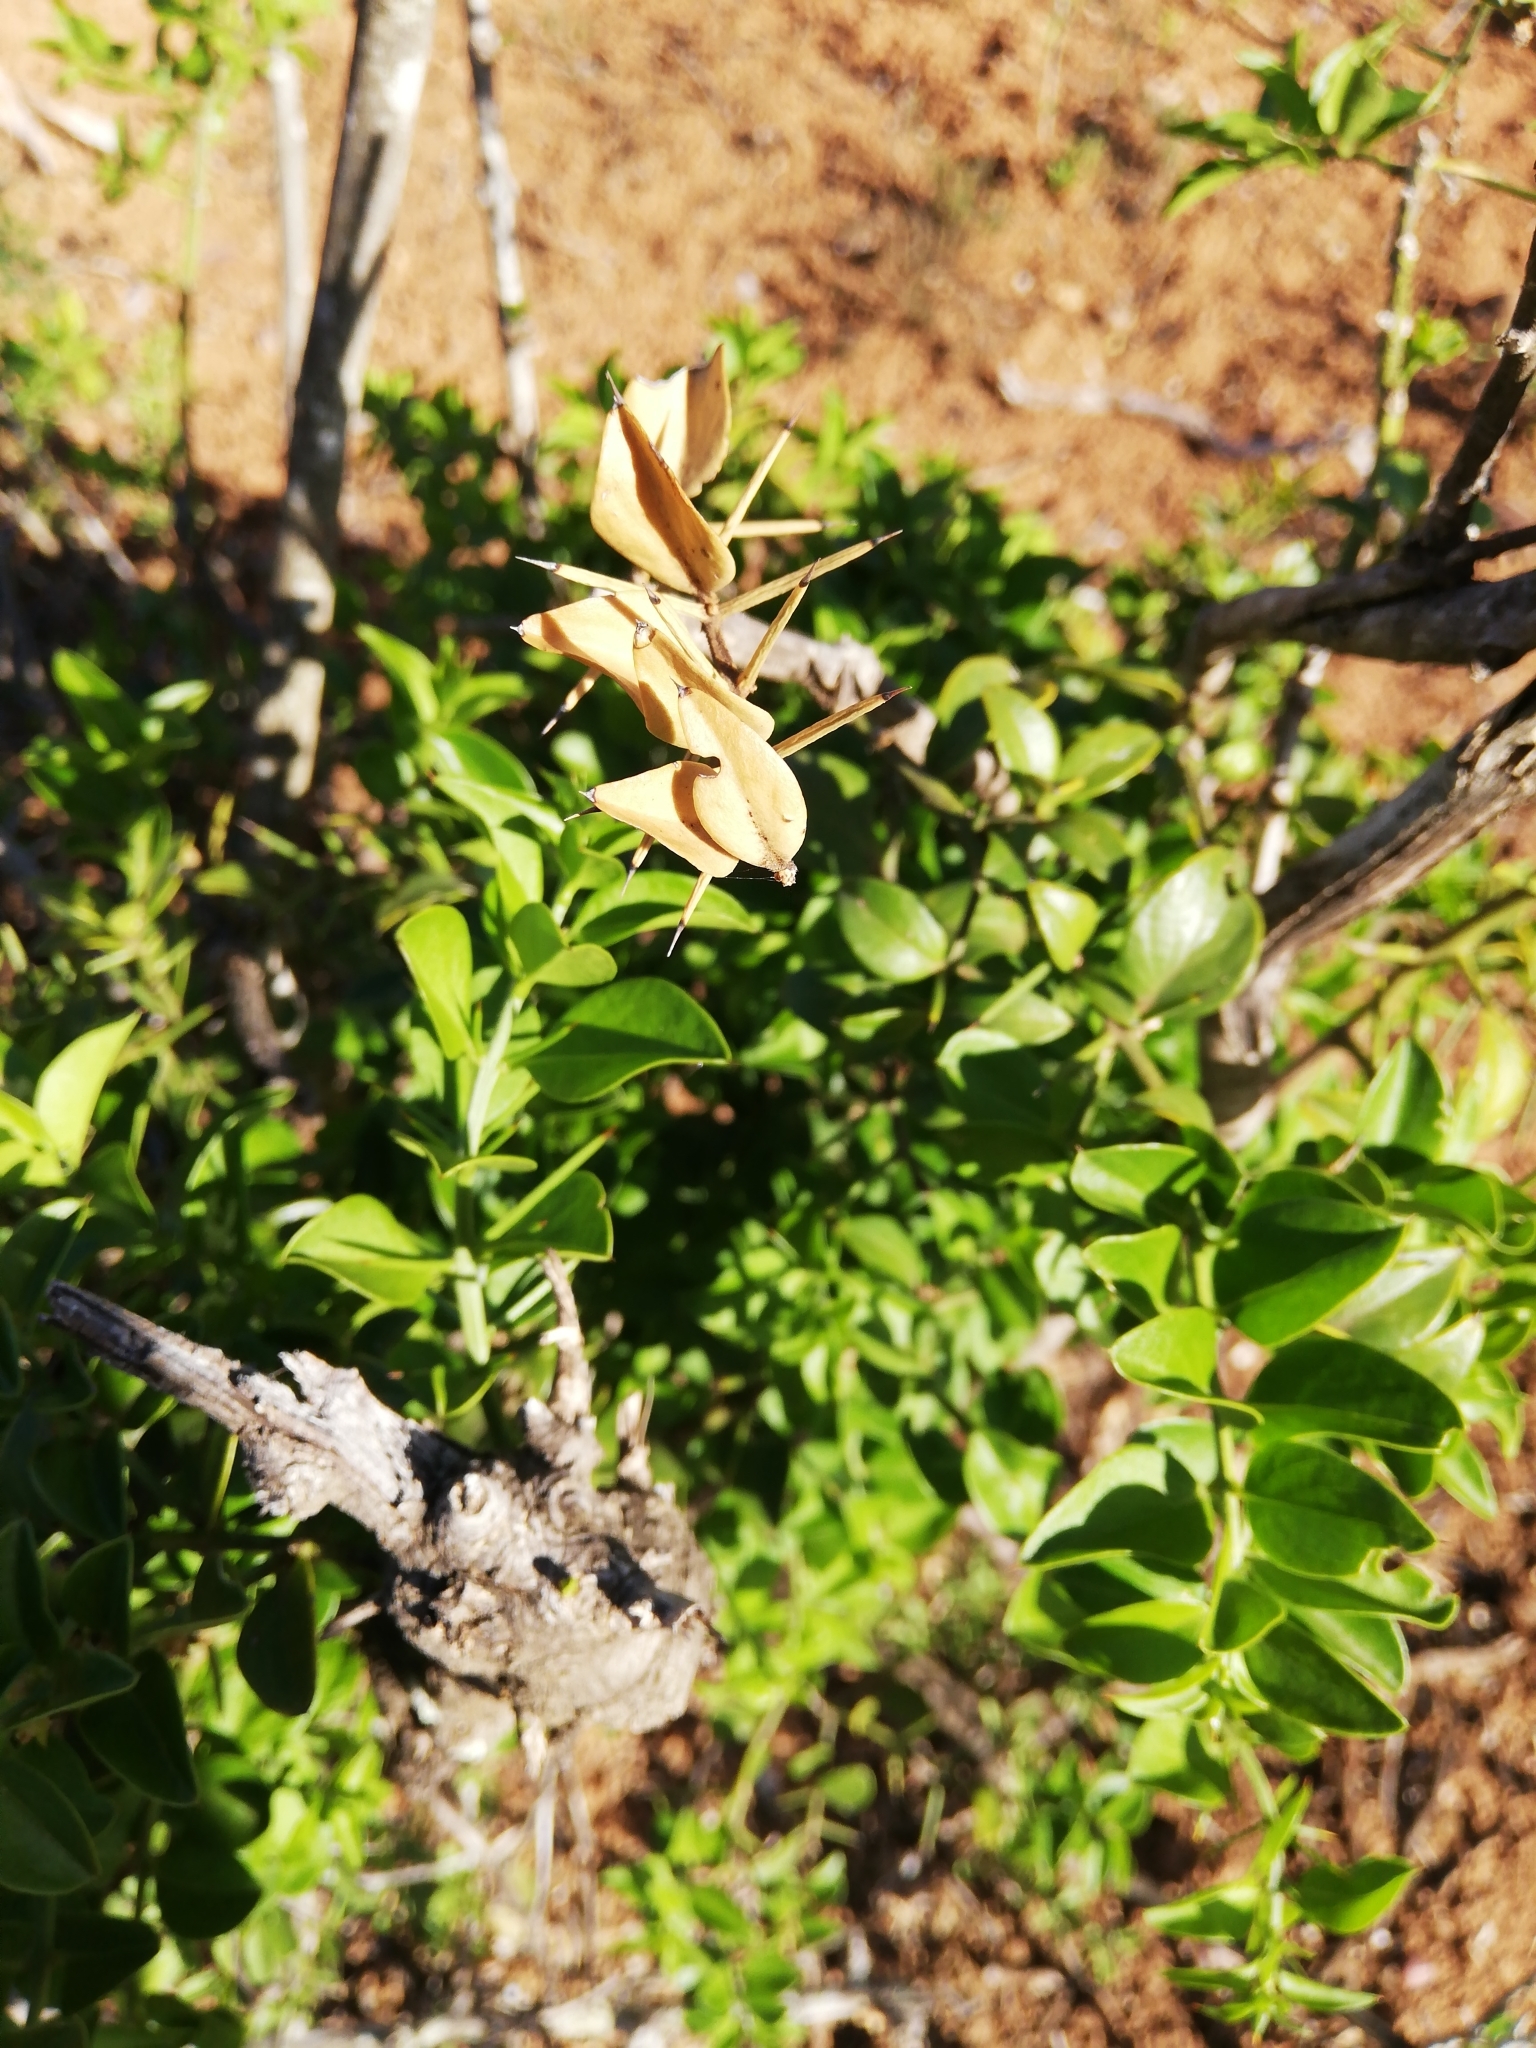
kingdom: Plantae
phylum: Tracheophyta
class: Magnoliopsida
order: Brassicales
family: Salvadoraceae
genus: Azima
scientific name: Azima tetracantha
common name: Needle bush
